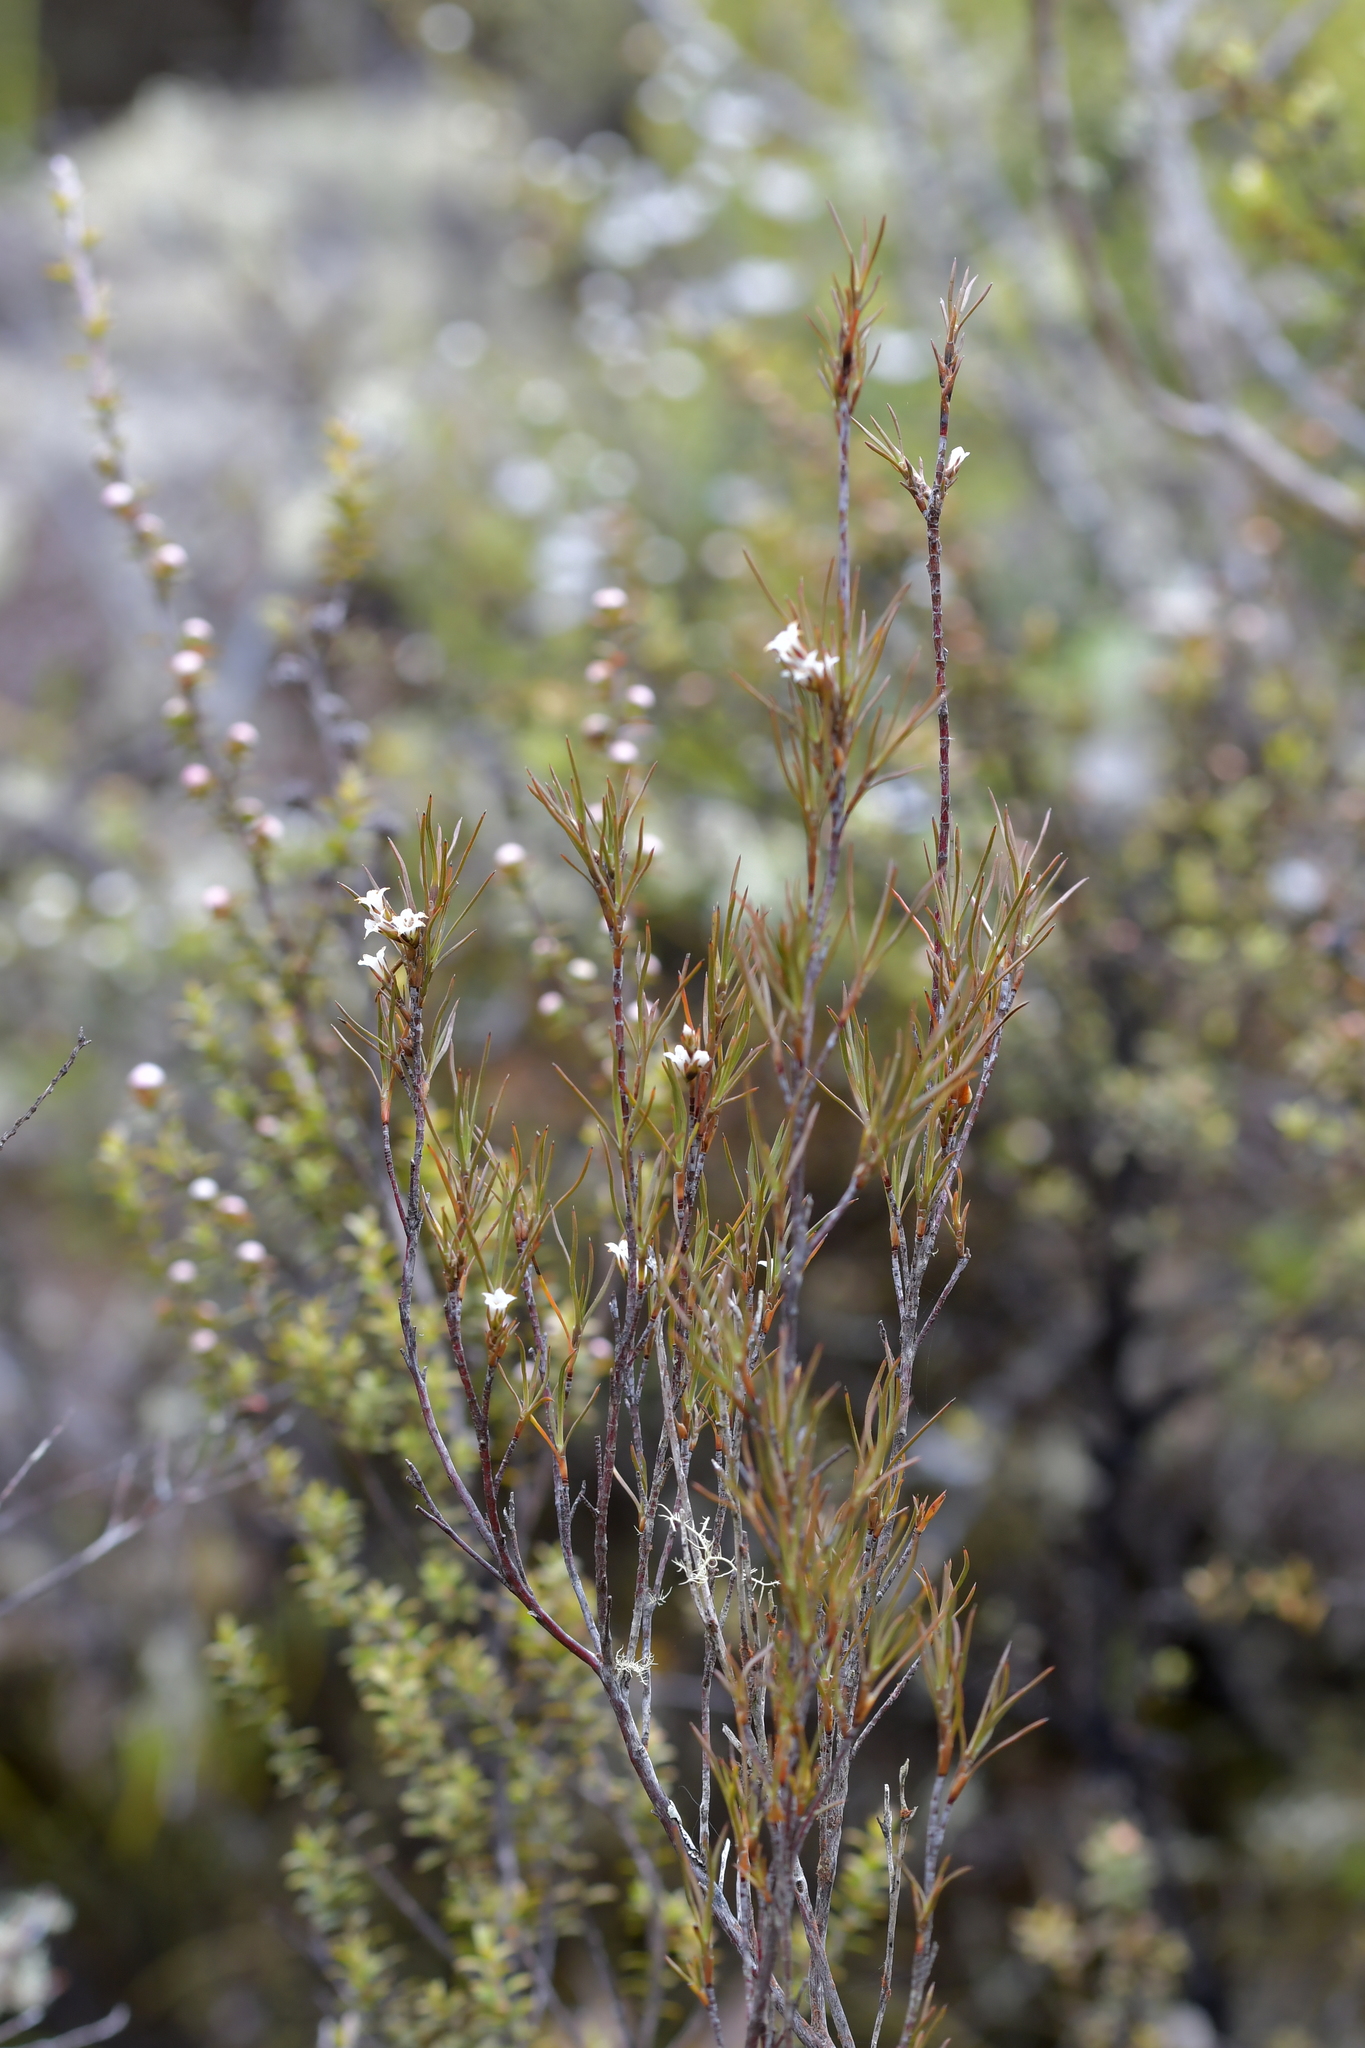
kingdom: Plantae
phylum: Tracheophyta
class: Magnoliopsida
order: Ericales
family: Ericaceae
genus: Dracophyllum
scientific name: Dracophyllum subulatum
